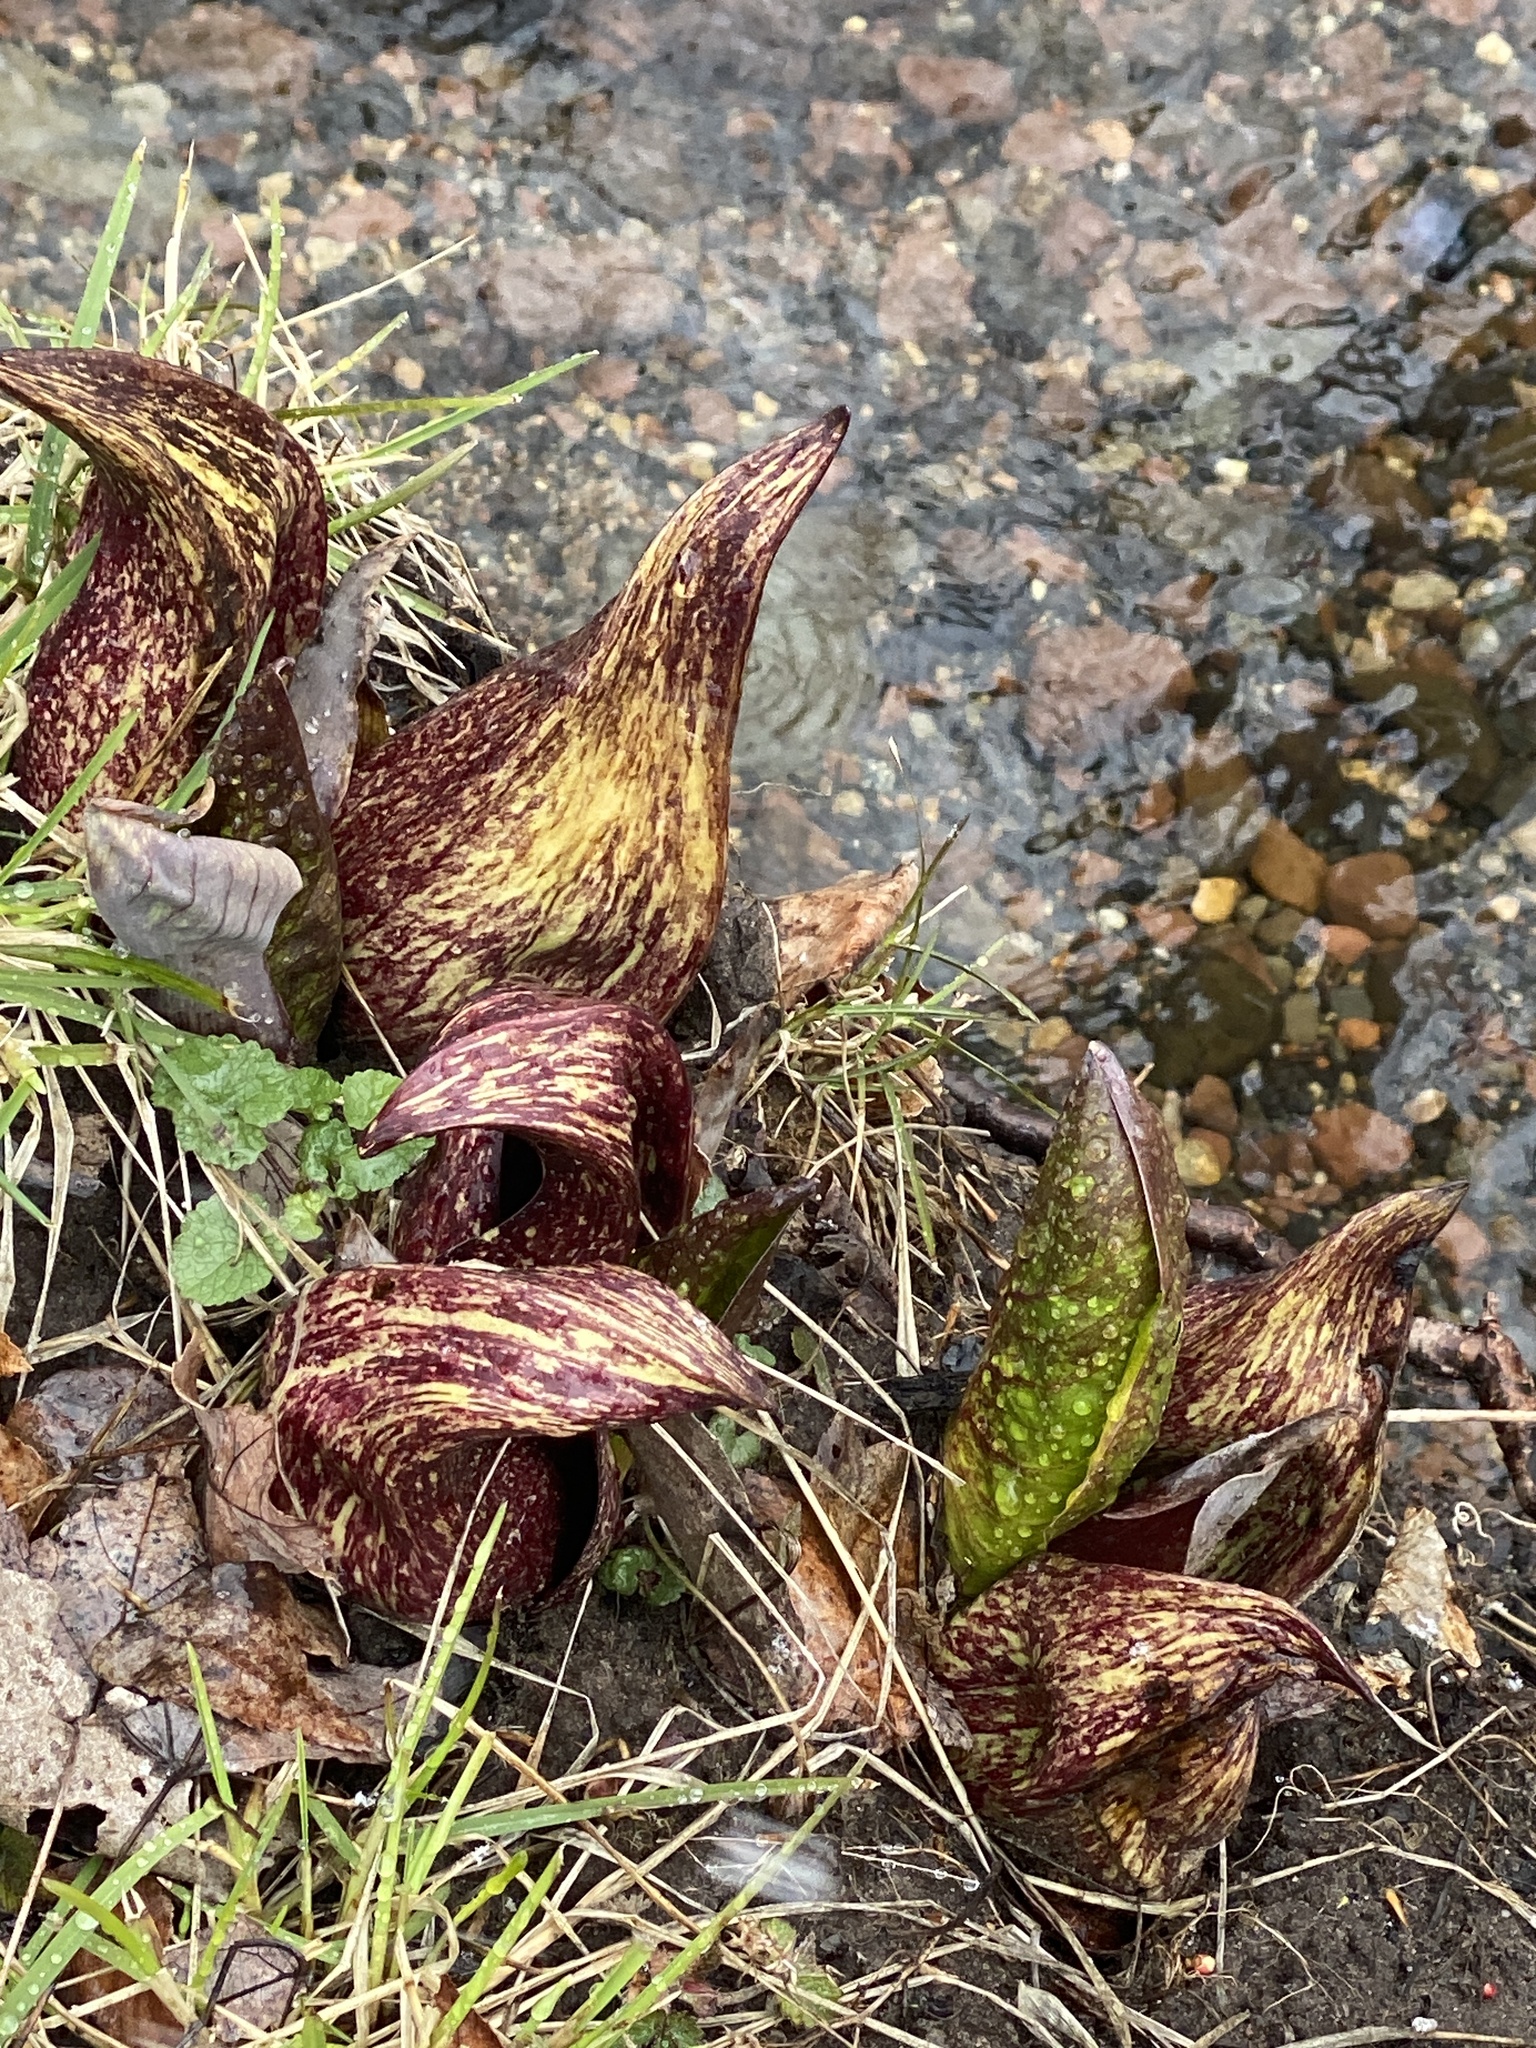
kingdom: Plantae
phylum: Tracheophyta
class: Liliopsida
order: Alismatales
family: Araceae
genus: Symplocarpus
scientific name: Symplocarpus foetidus
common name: Eastern skunk cabbage
